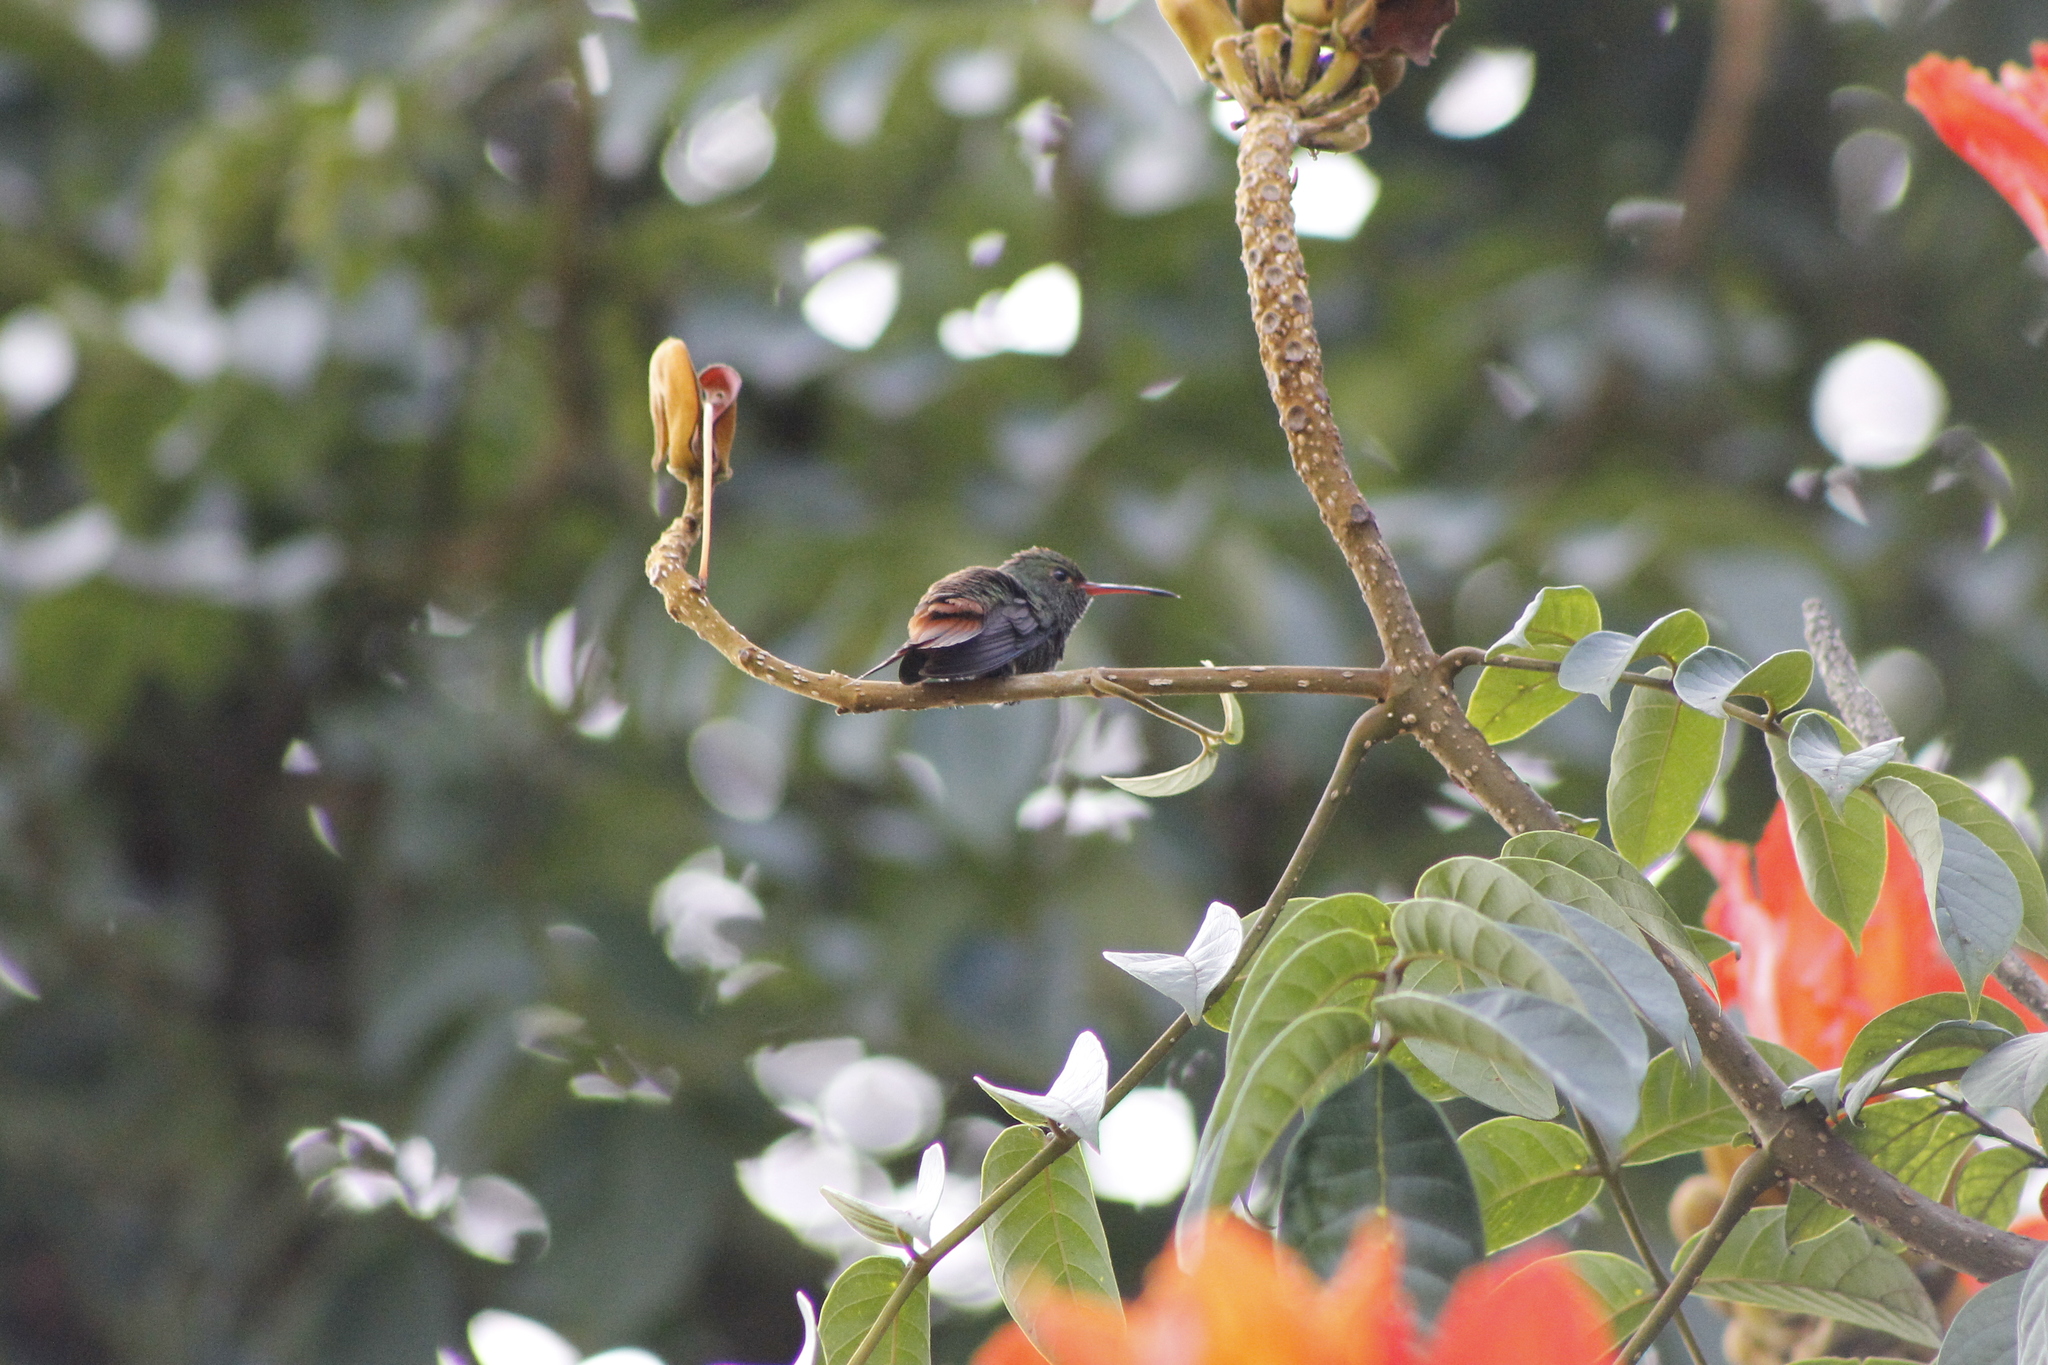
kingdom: Animalia
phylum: Chordata
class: Aves
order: Apodiformes
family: Trochilidae
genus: Amazilia
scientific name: Amazilia tzacatl
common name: Rufous-tailed hummingbird
